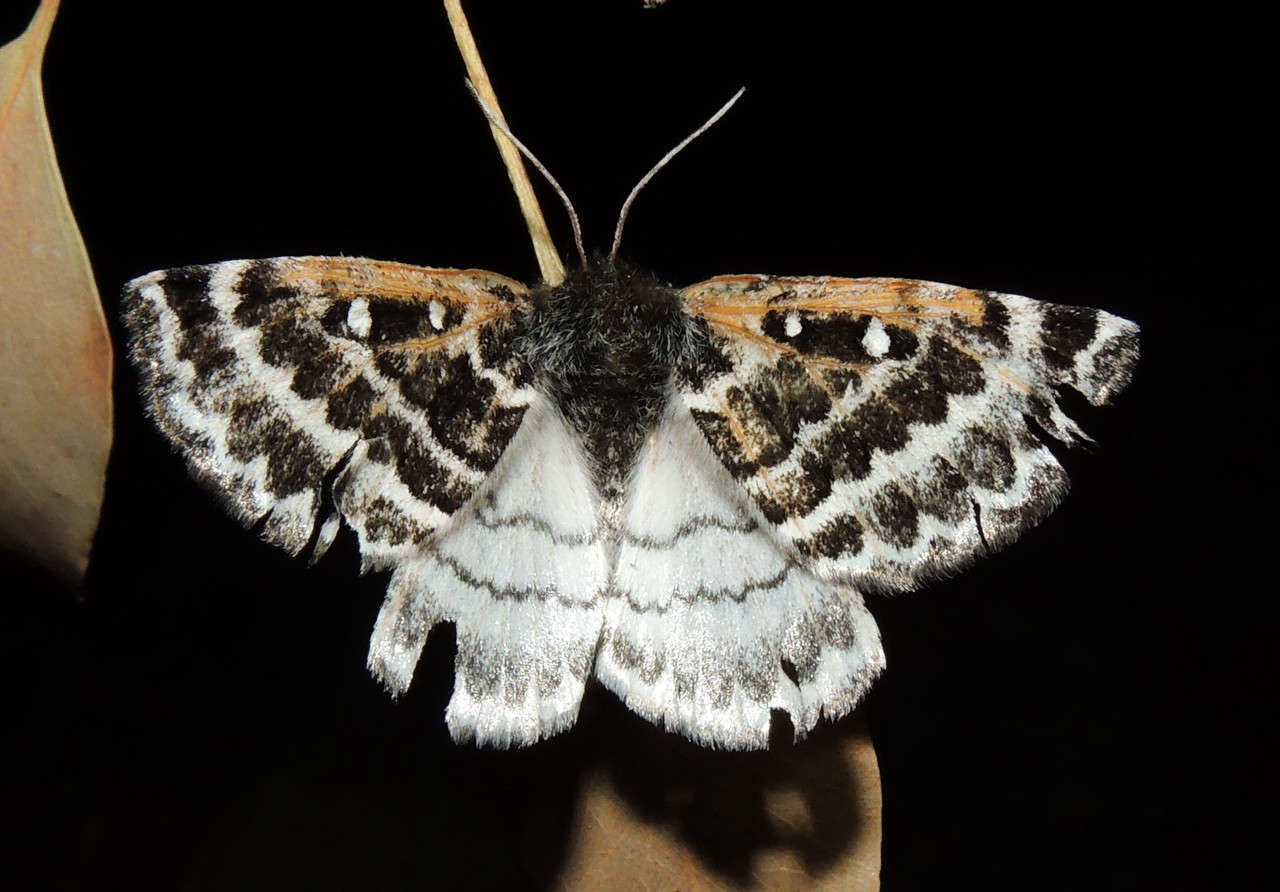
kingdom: Animalia
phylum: Arthropoda
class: Insecta
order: Lepidoptera
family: Anthelidae
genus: Anthela
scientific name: Anthela denticulata
